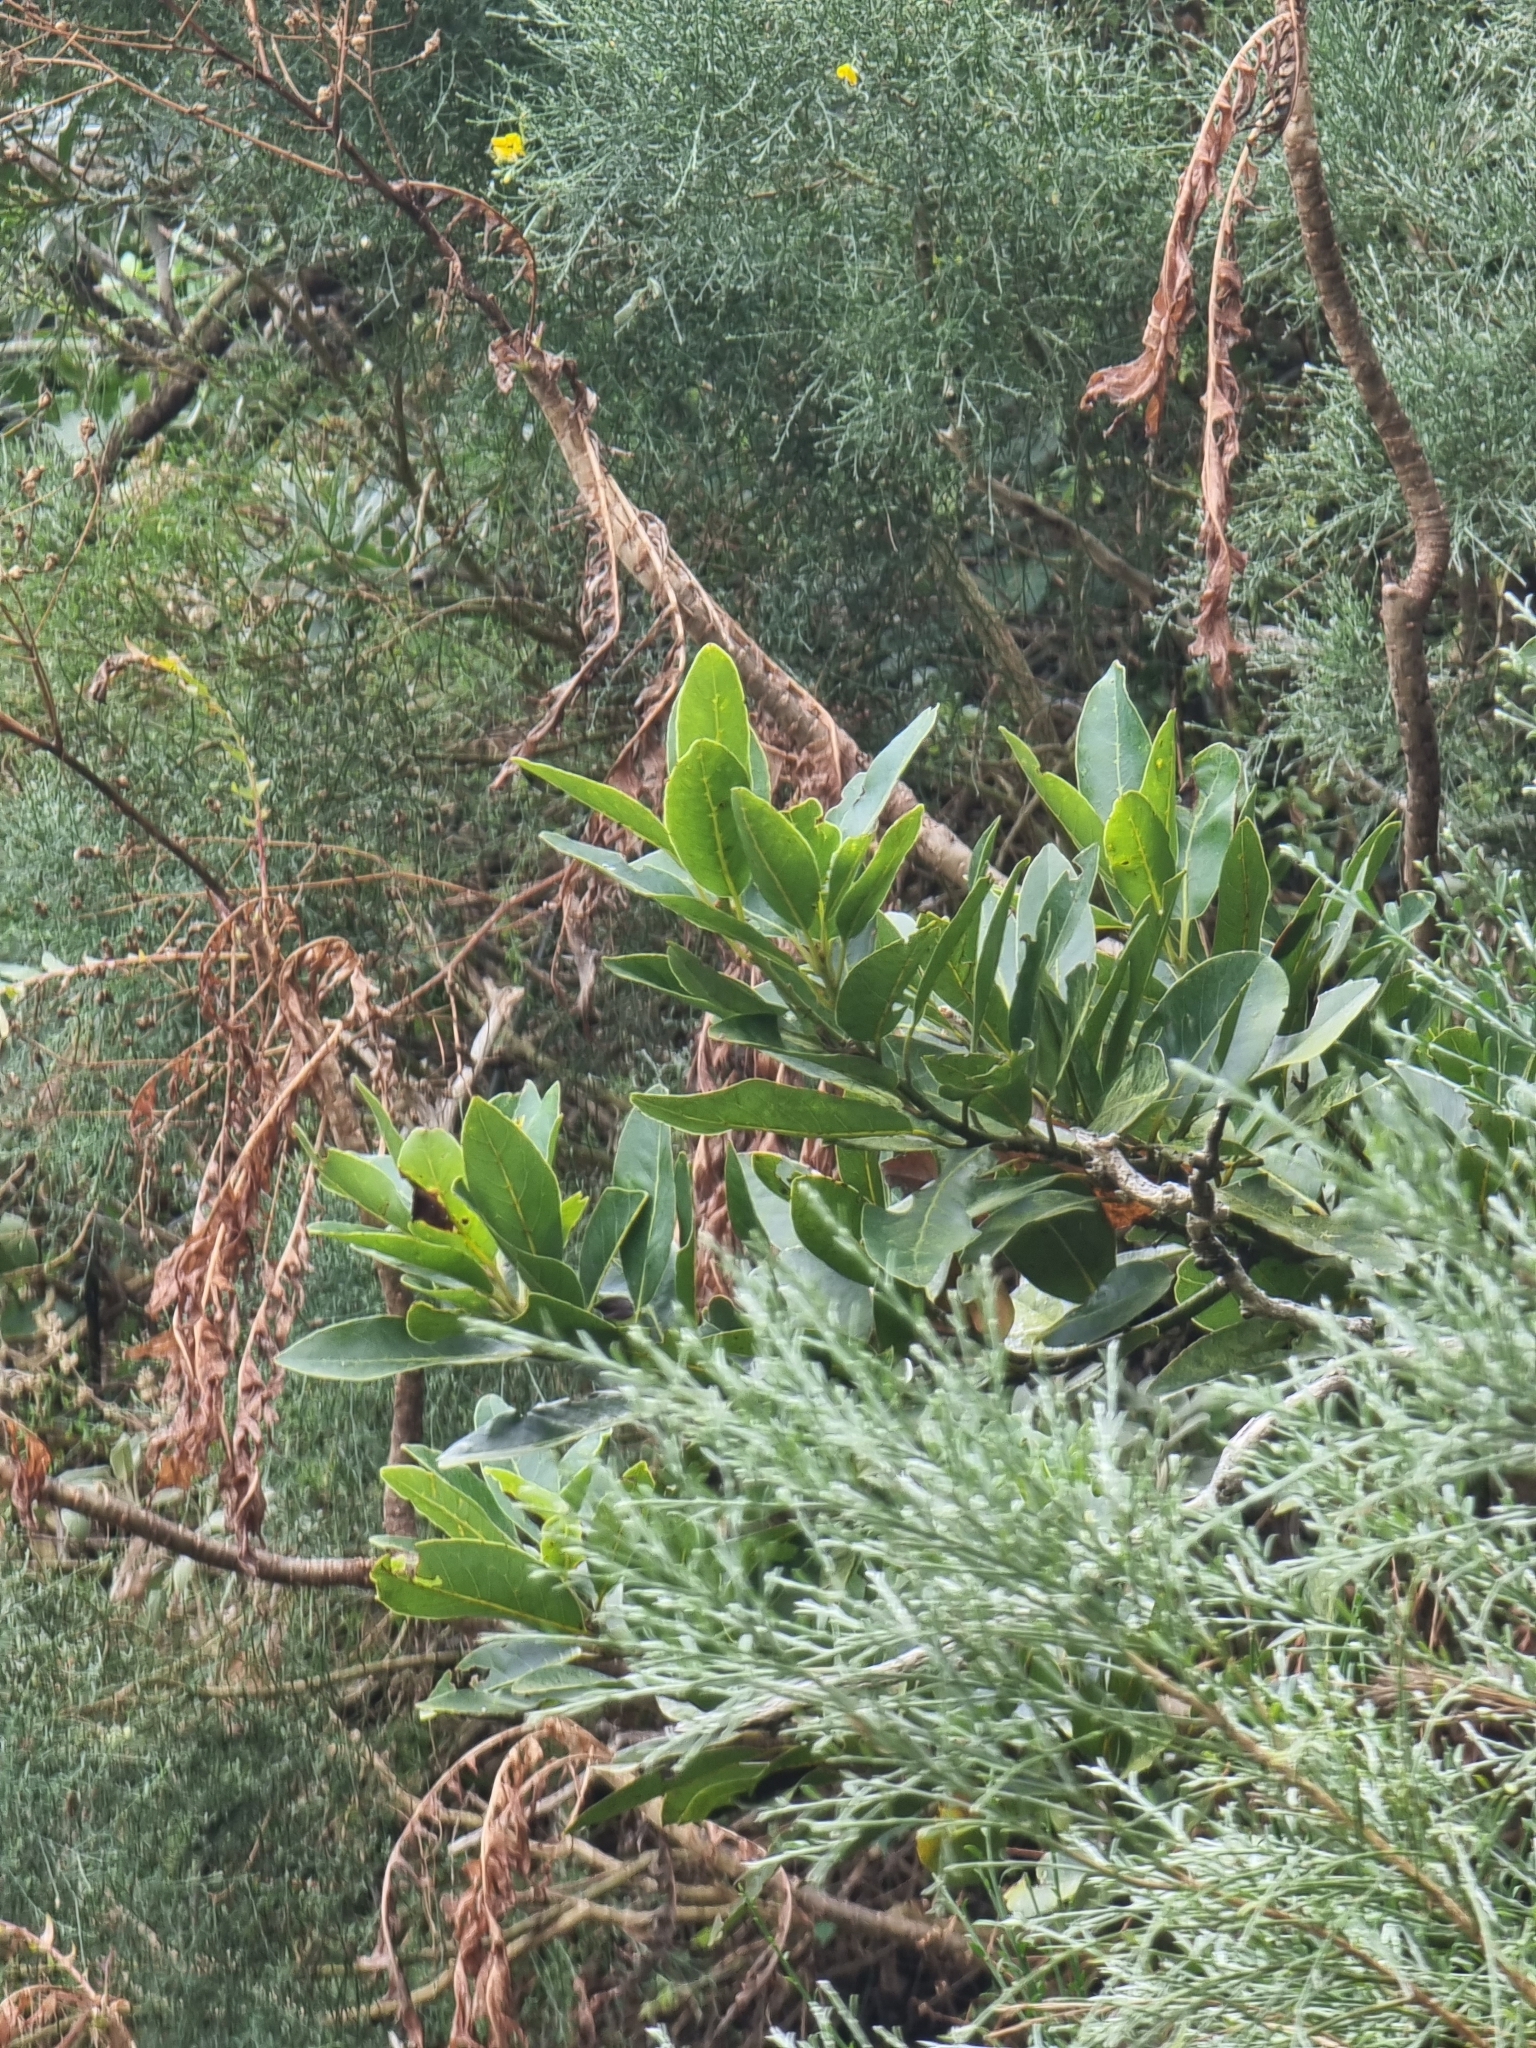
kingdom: Plantae
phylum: Tracheophyta
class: Magnoliopsida
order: Laurales
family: Lauraceae
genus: Laurus
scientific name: Laurus novocanariensis
